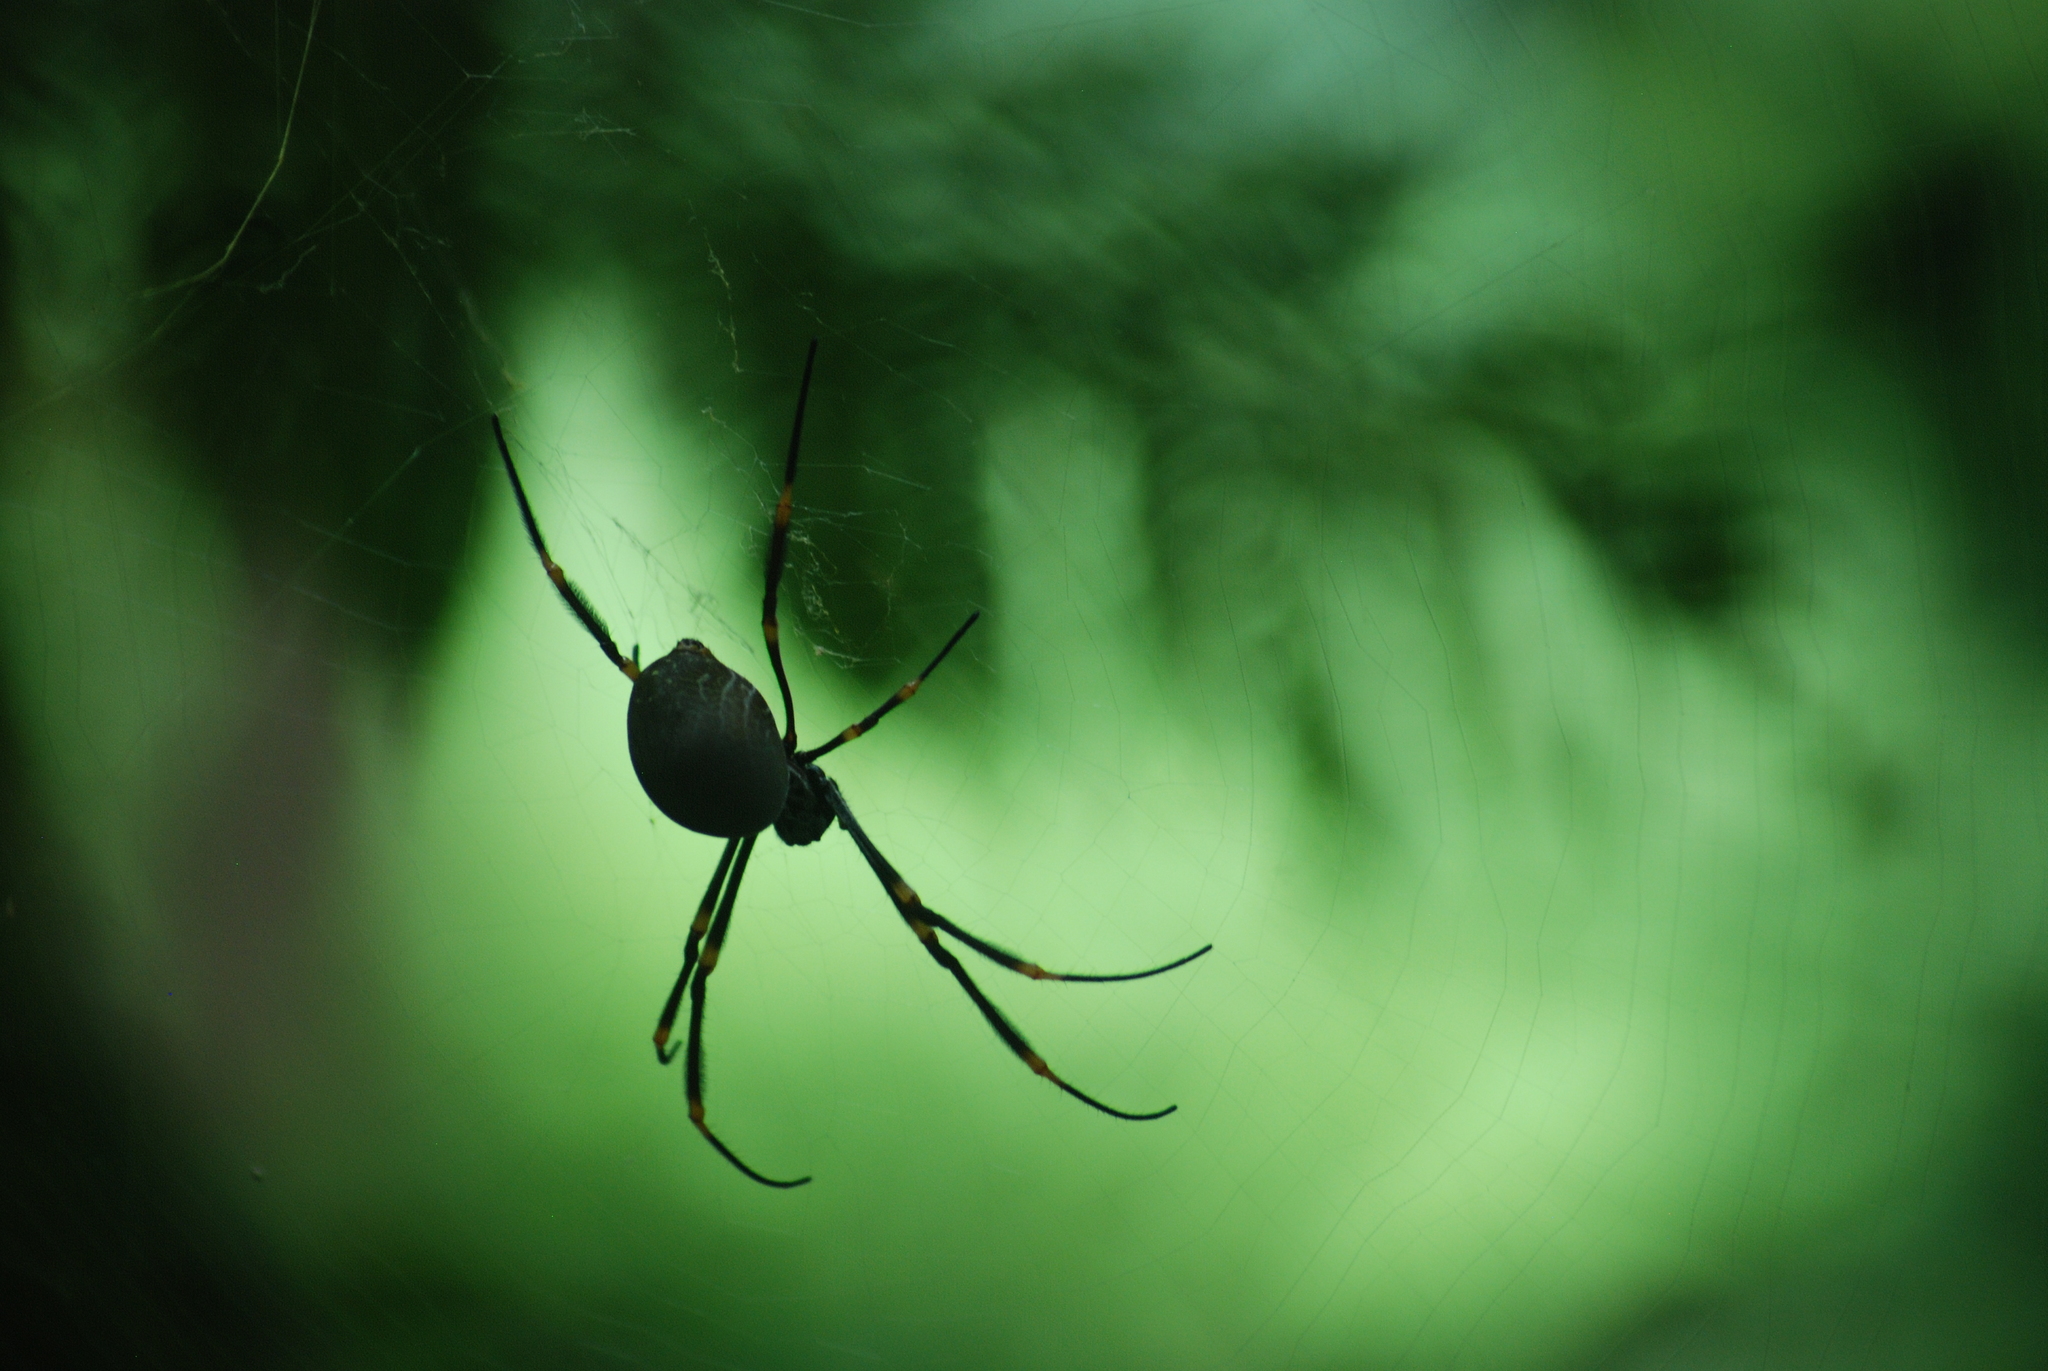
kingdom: Animalia
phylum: Arthropoda
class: Arachnida
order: Araneae
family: Araneidae
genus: Trichonephila
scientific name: Trichonephila plumipes
